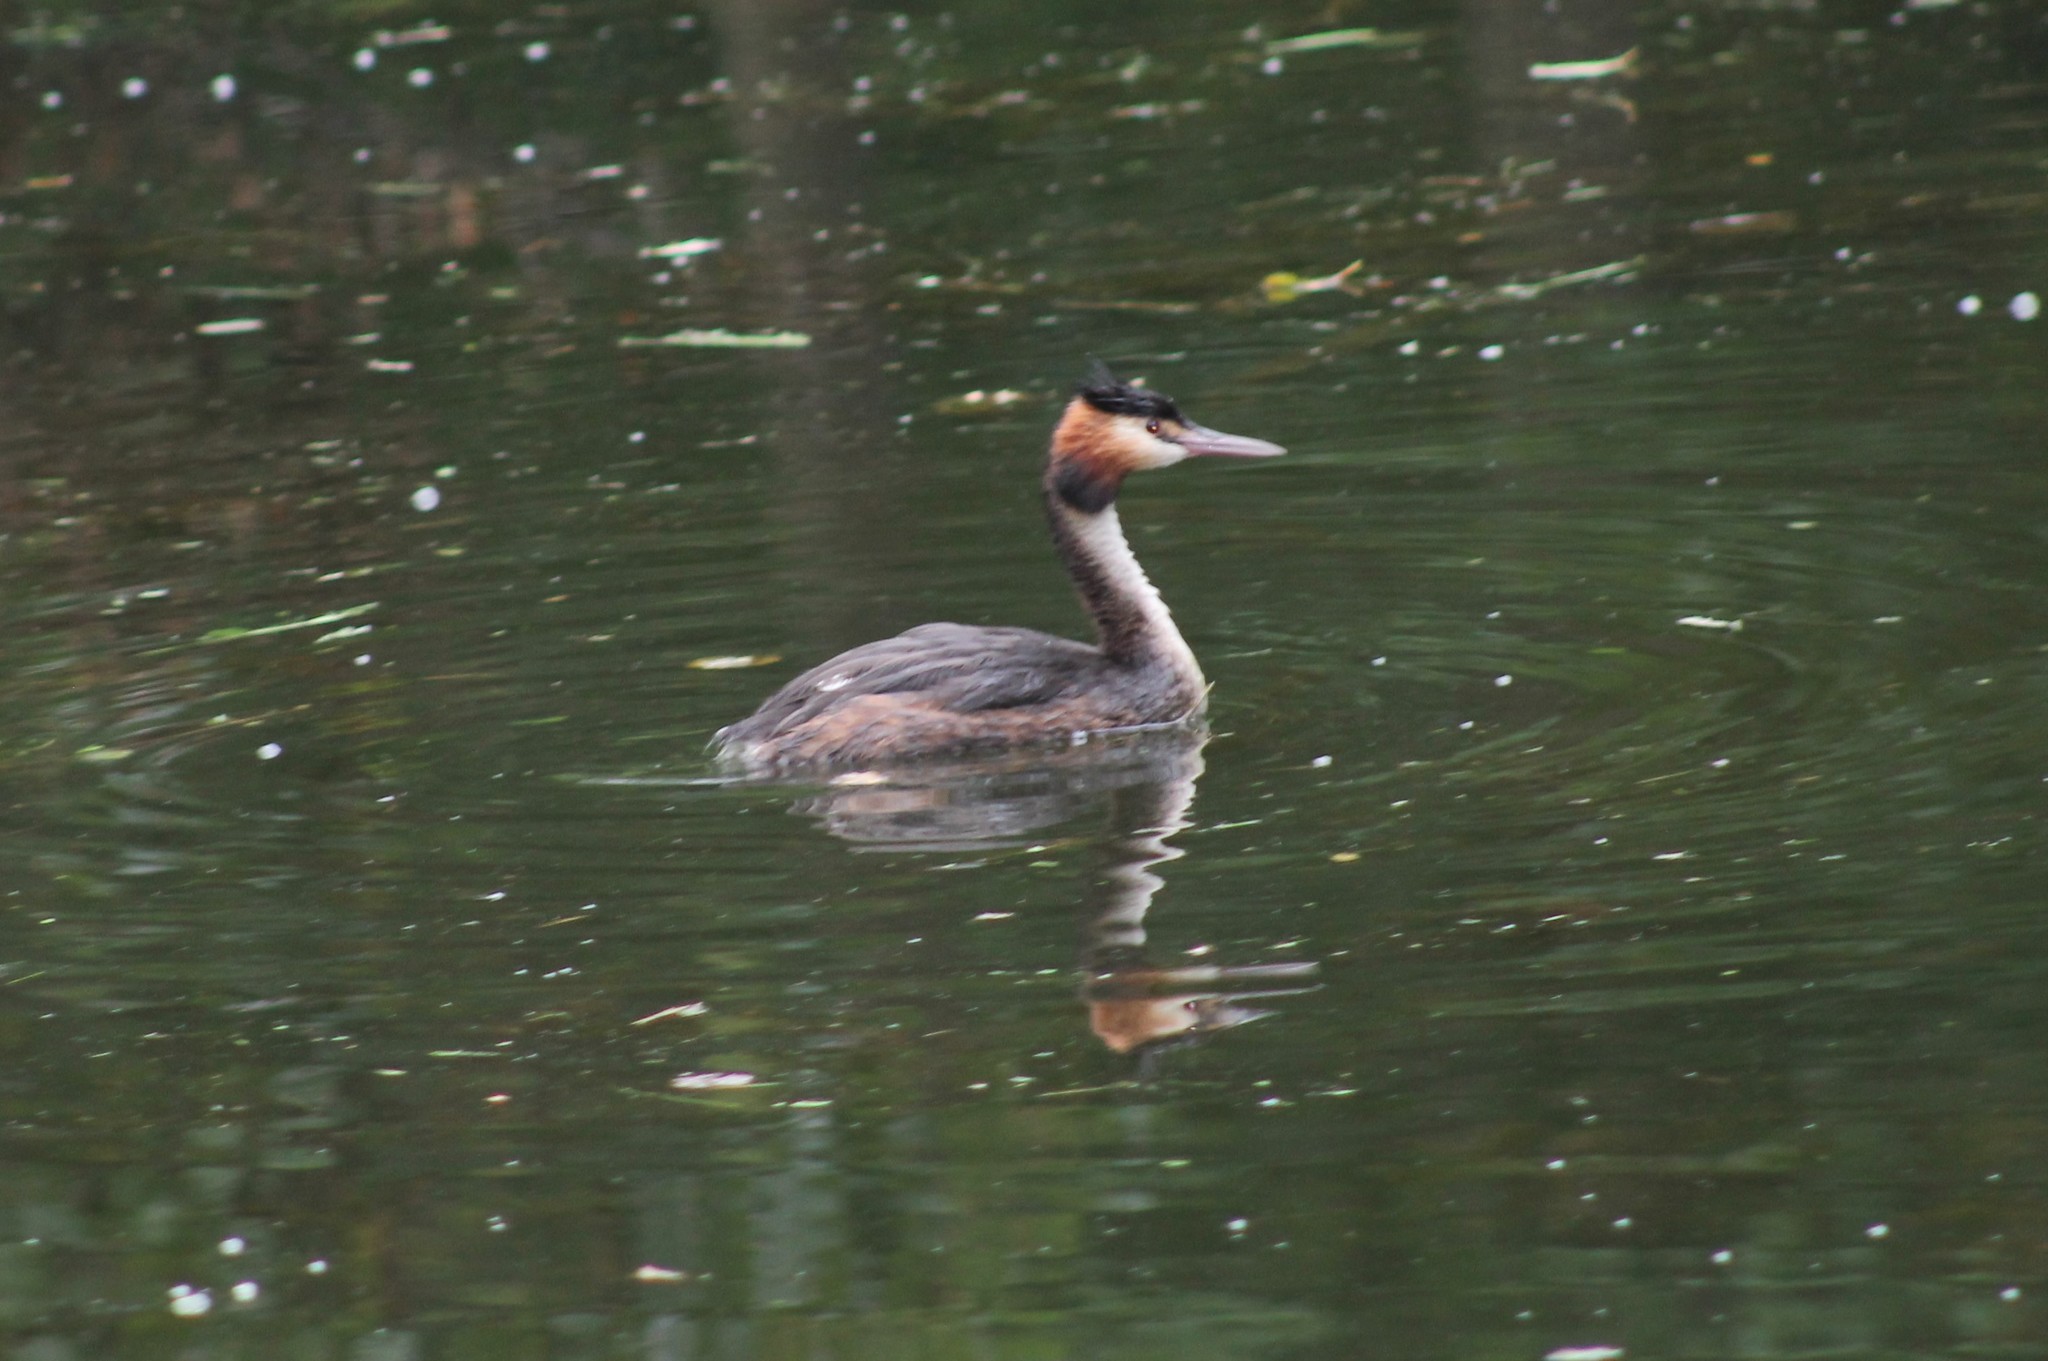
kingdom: Animalia
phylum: Chordata
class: Aves
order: Podicipediformes
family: Podicipedidae
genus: Podiceps
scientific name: Podiceps cristatus
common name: Great crested grebe
